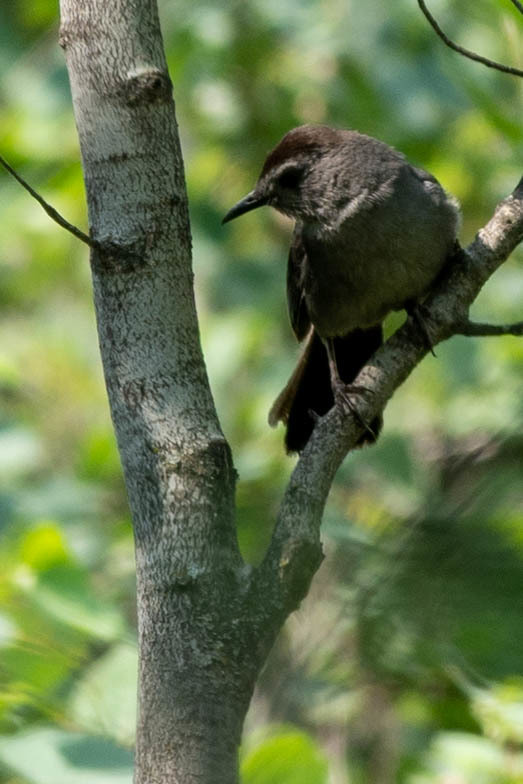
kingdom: Animalia
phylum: Chordata
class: Aves
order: Passeriformes
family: Mimidae
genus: Dumetella
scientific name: Dumetella carolinensis
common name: Gray catbird
